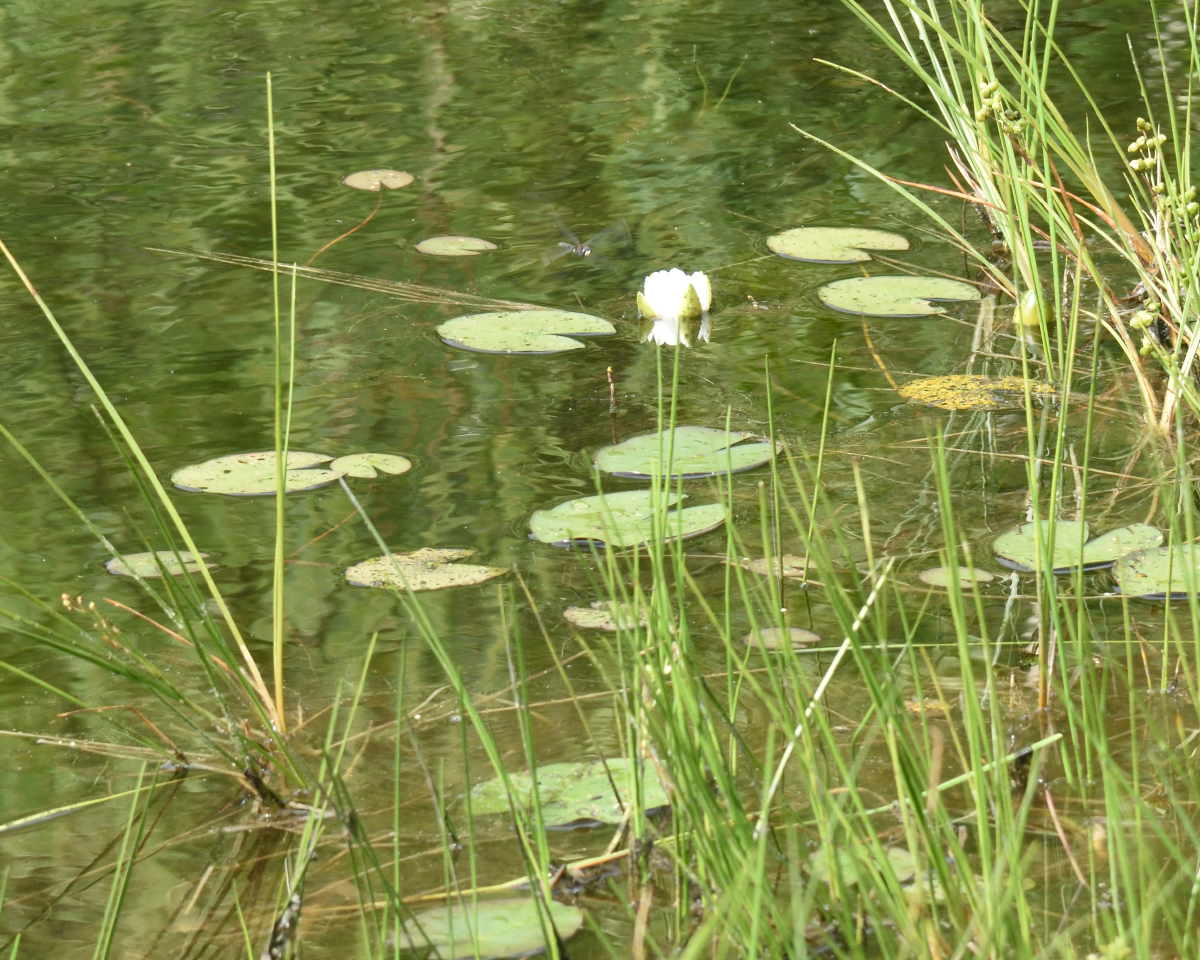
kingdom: Plantae
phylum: Tracheophyta
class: Magnoliopsida
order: Nymphaeales
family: Nymphaeaceae
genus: Nymphaea
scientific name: Nymphaea candida
